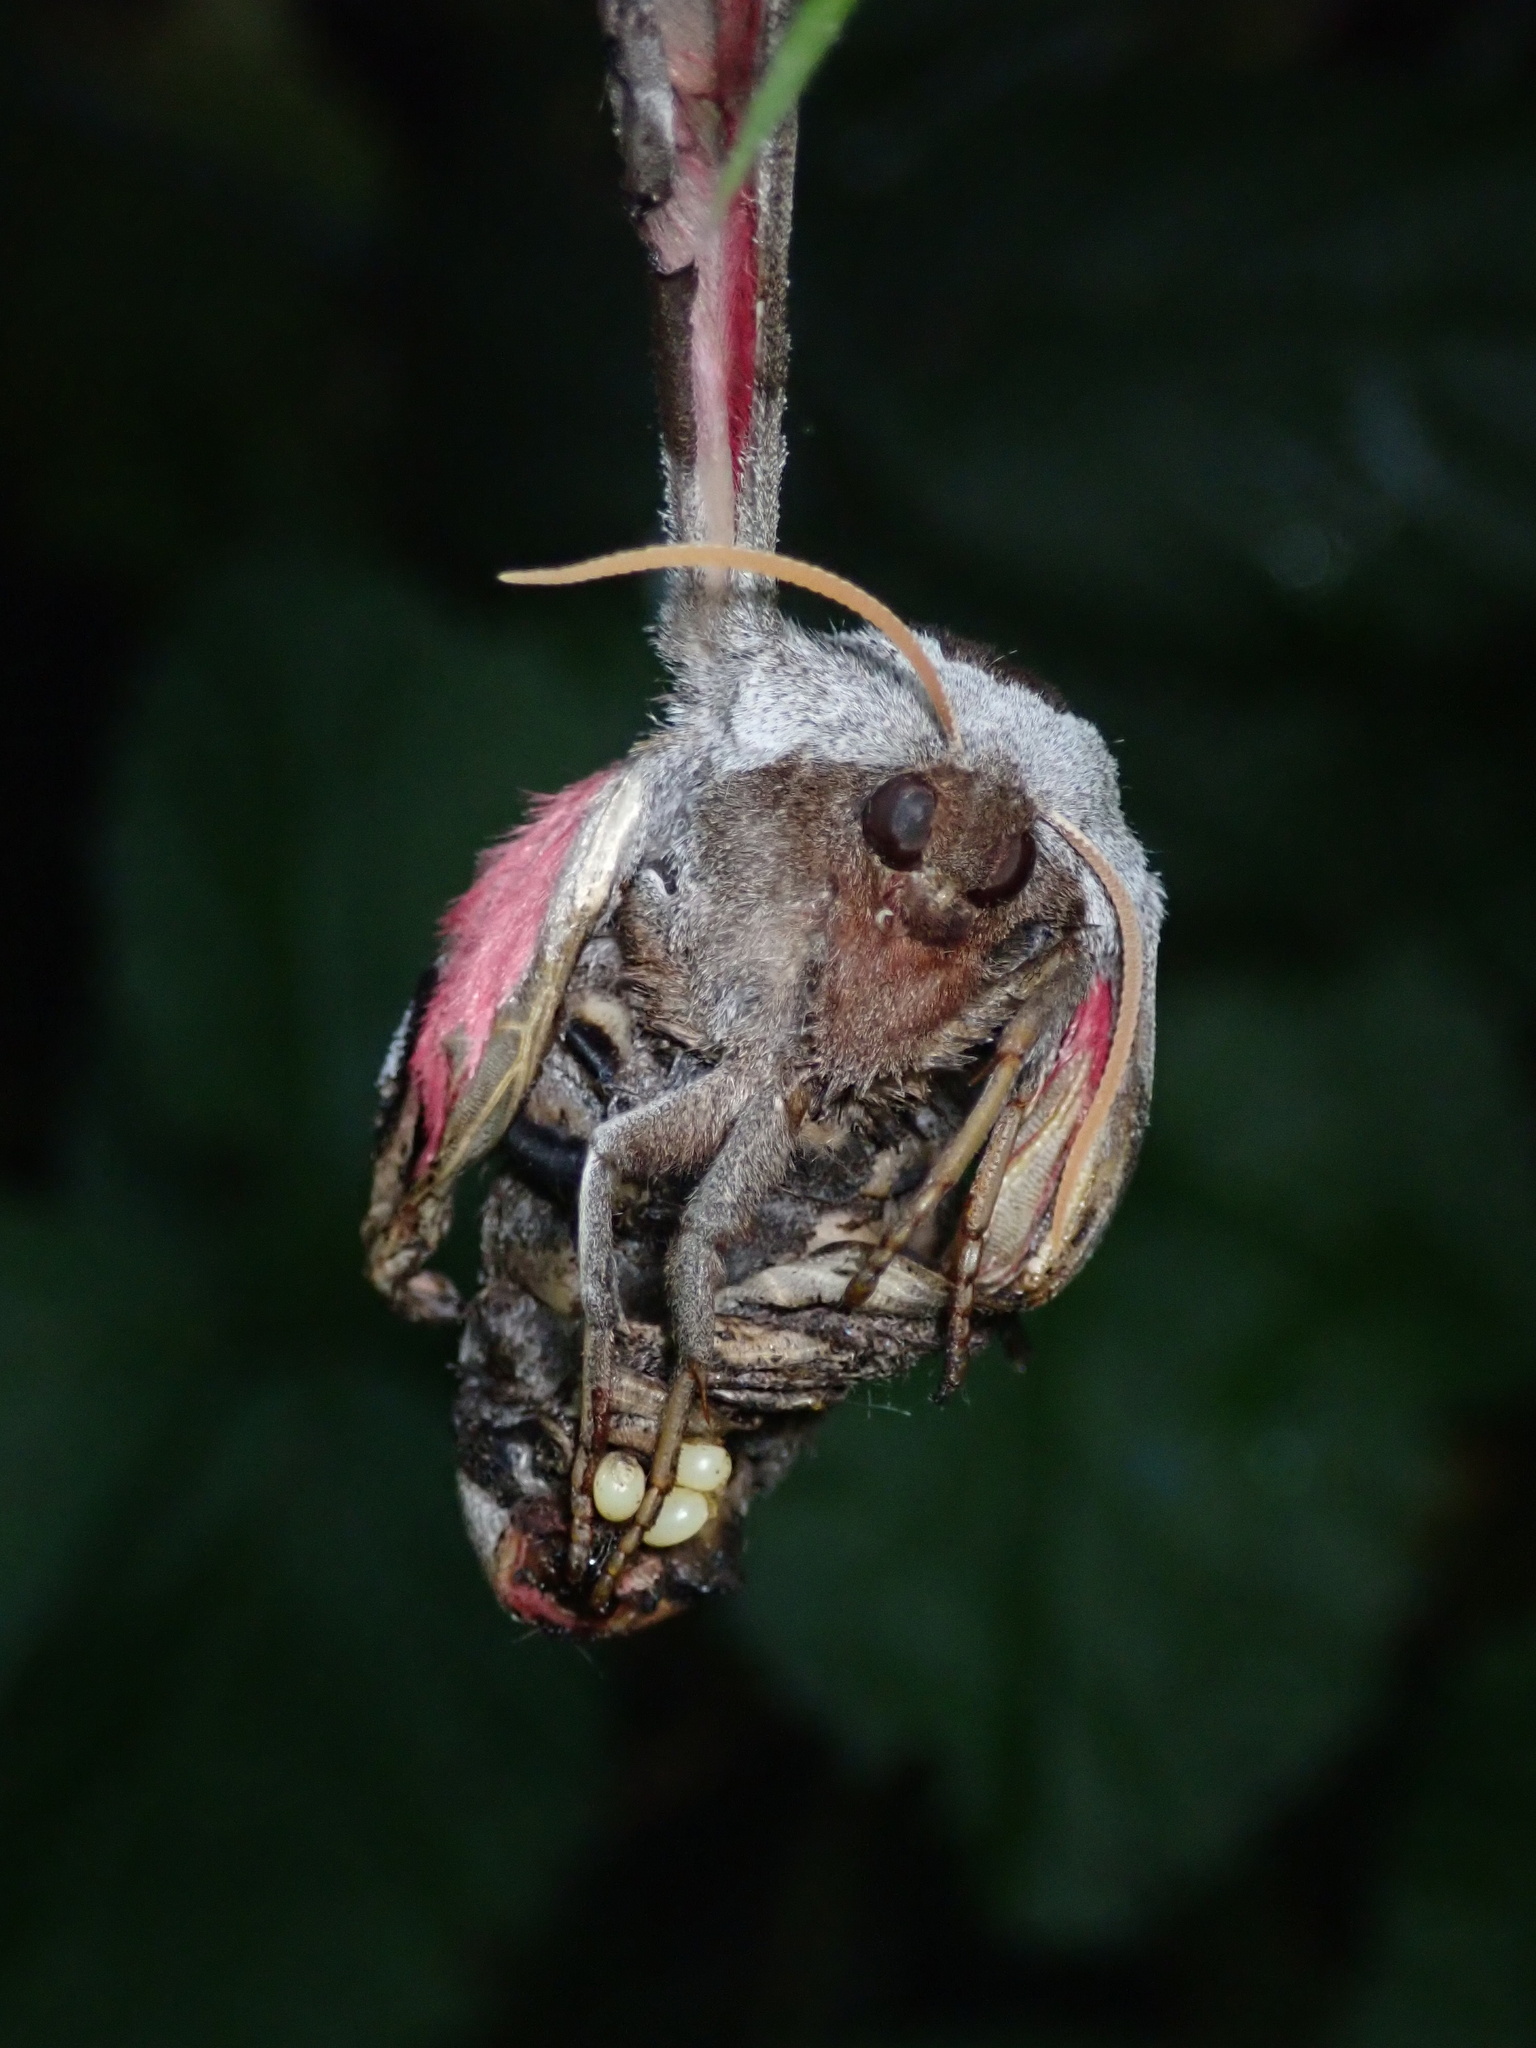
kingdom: Animalia
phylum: Arthropoda
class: Insecta
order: Lepidoptera
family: Sphingidae
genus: Smerinthus
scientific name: Smerinthus cerisyi
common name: Cerisy's sphinx moth
